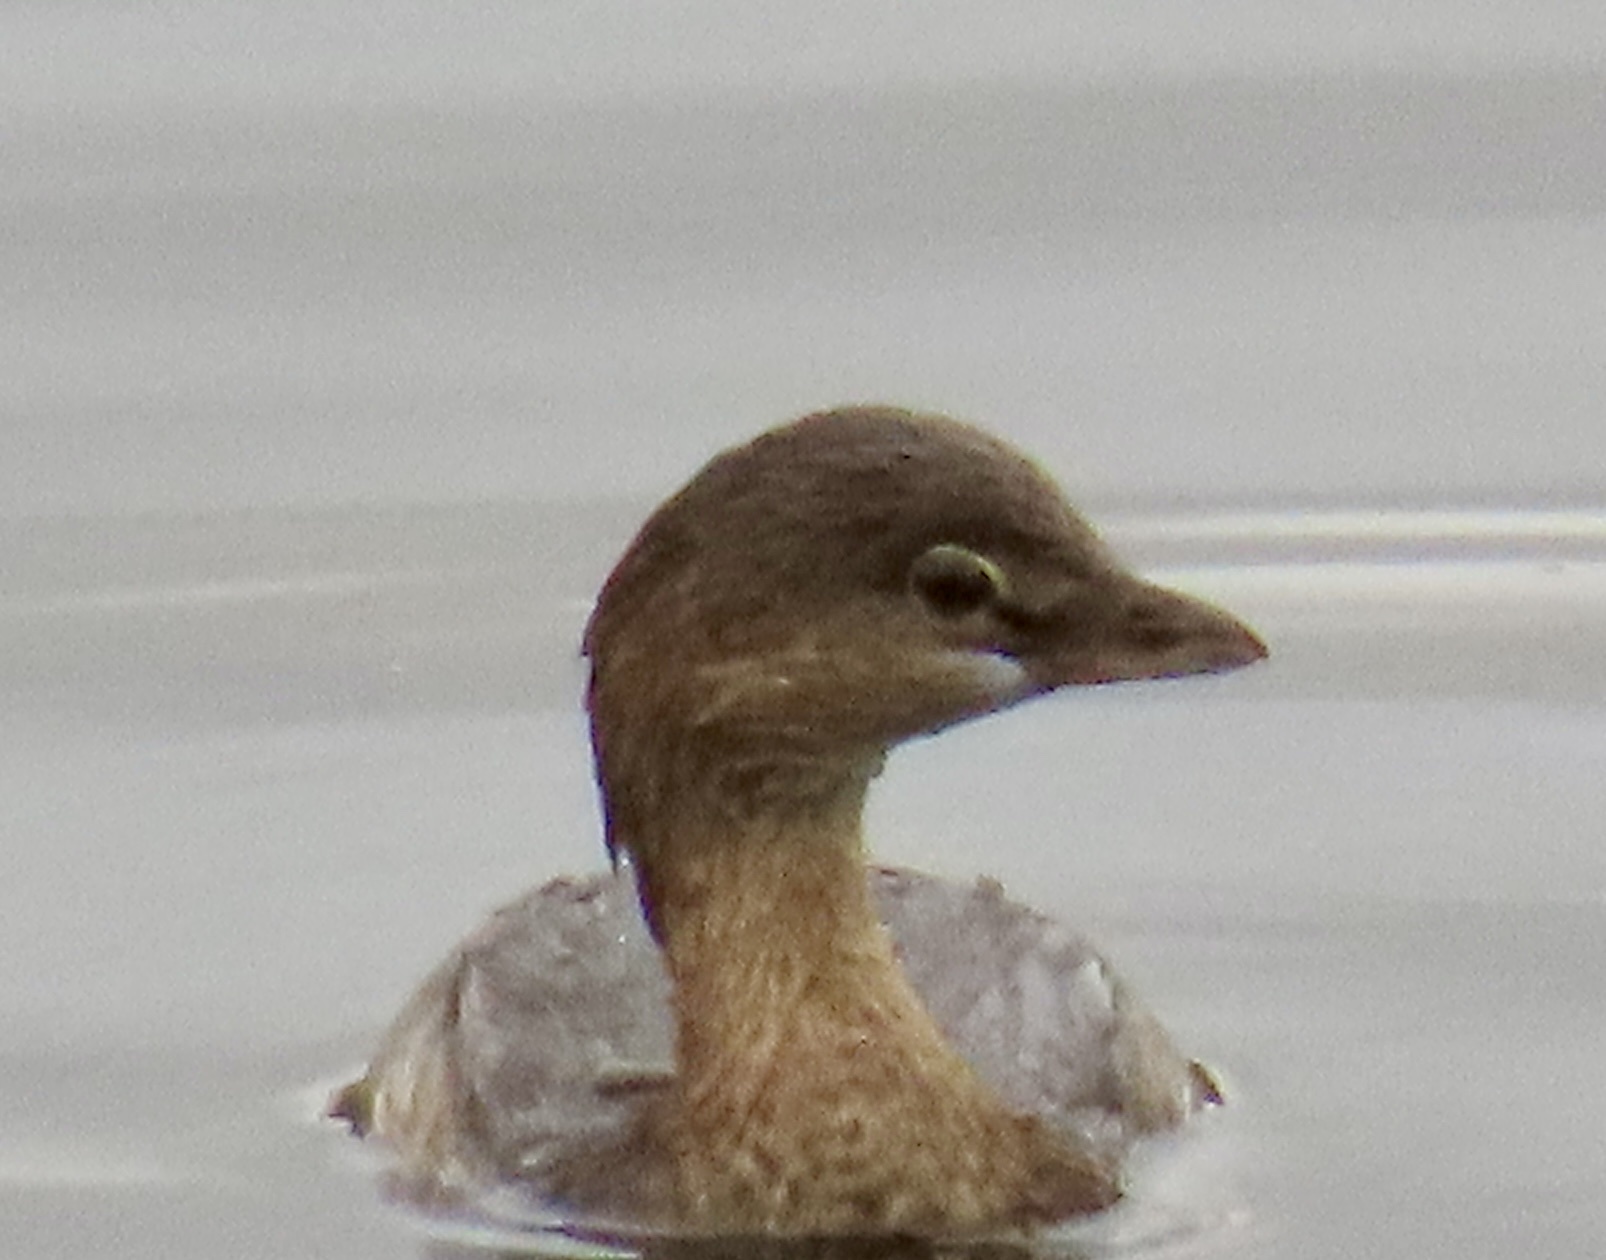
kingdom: Animalia
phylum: Chordata
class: Aves
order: Podicipediformes
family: Podicipedidae
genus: Podilymbus
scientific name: Podilymbus podiceps
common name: Pied-billed grebe
